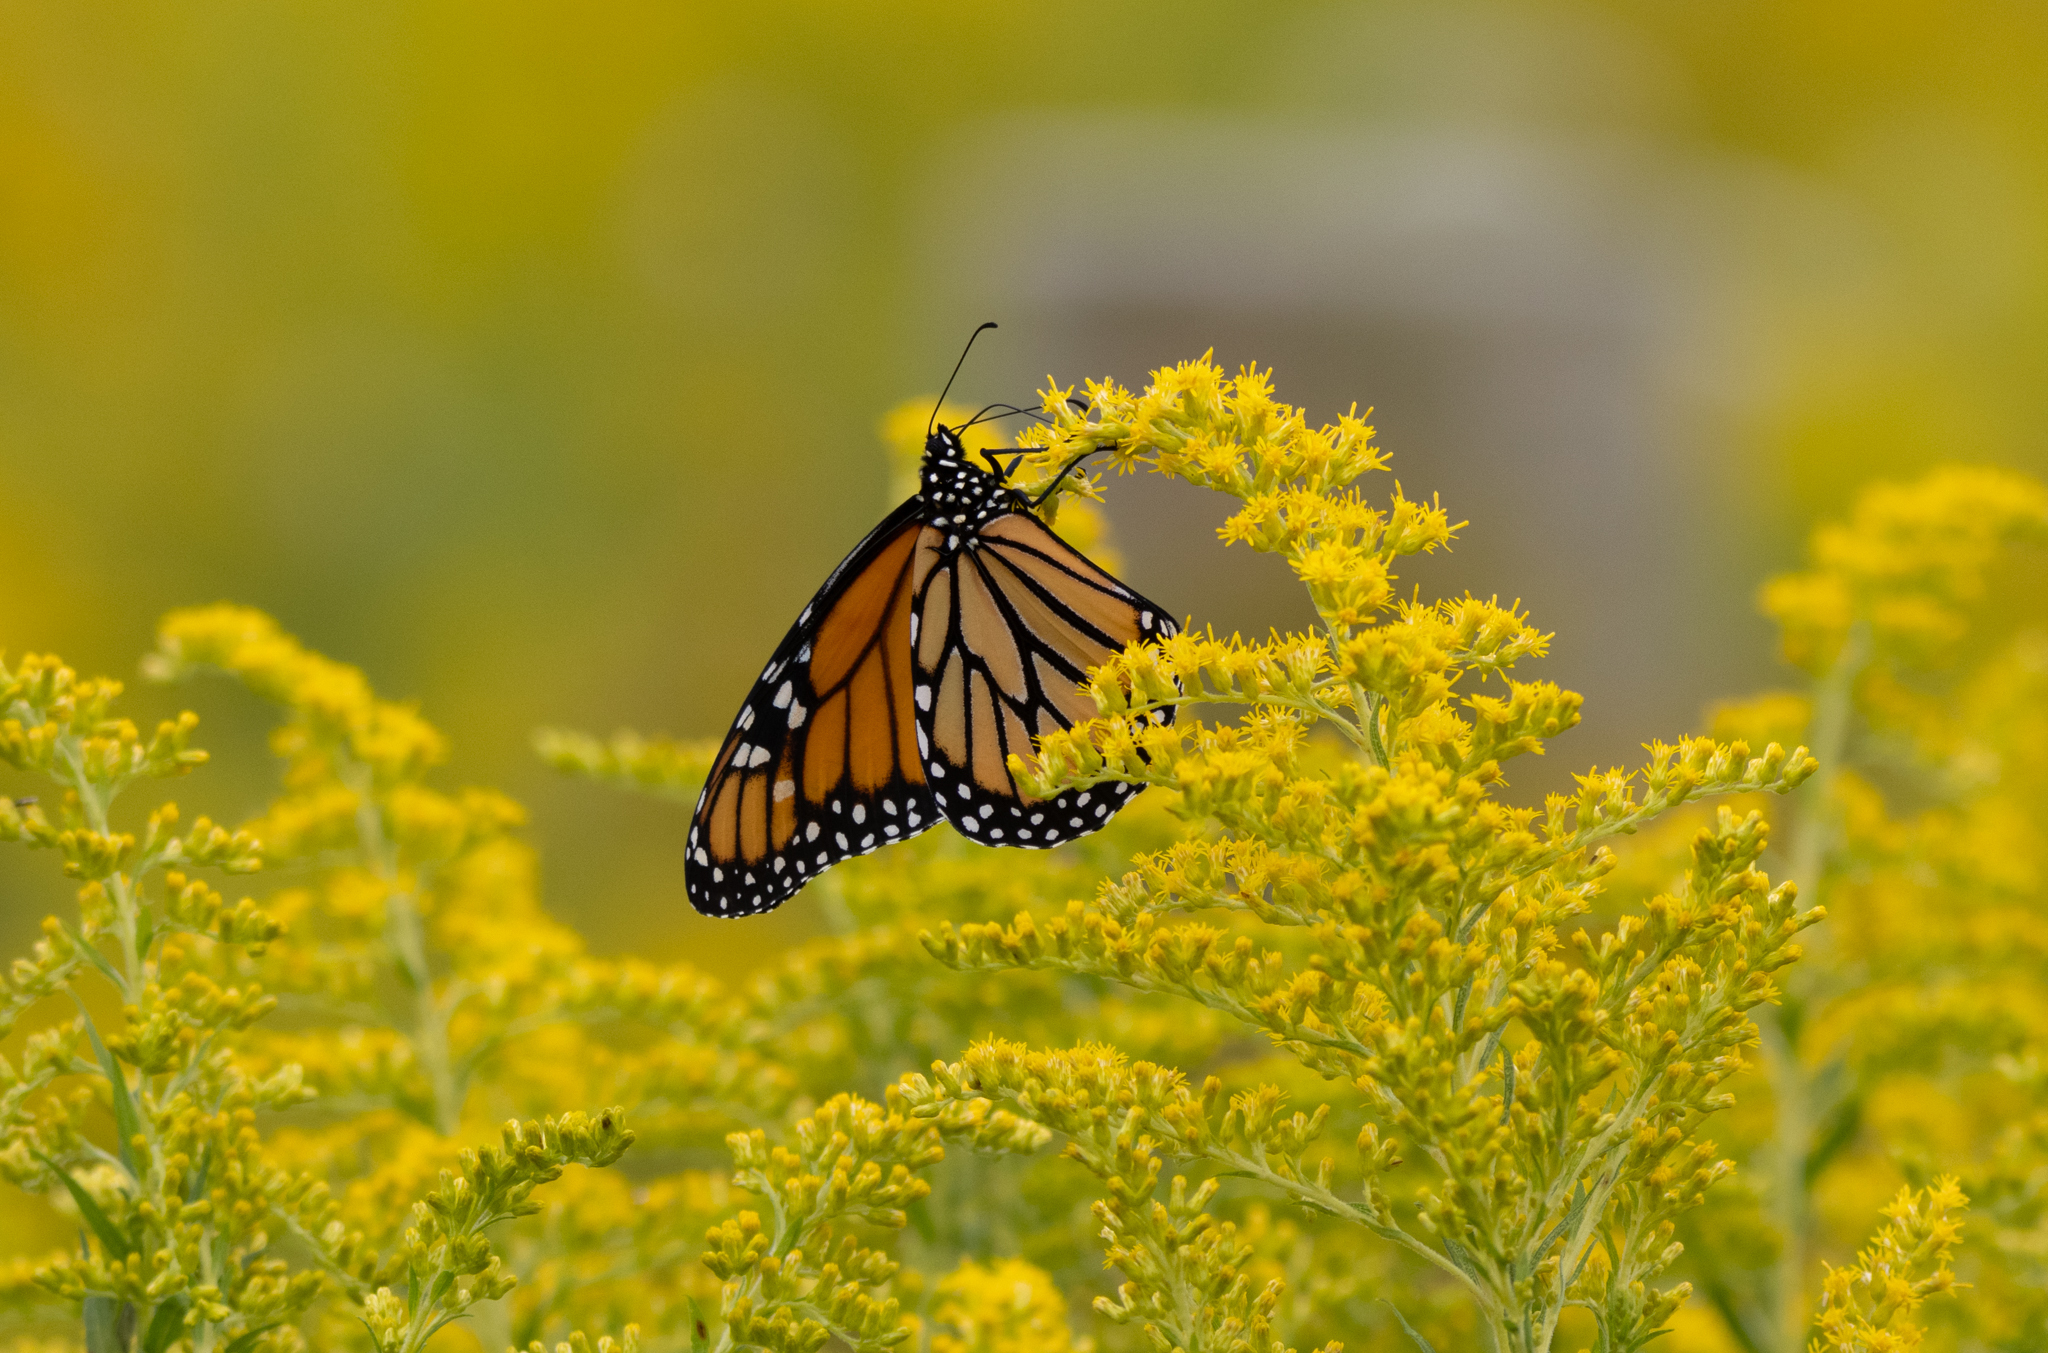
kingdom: Animalia
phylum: Arthropoda
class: Insecta
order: Lepidoptera
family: Nymphalidae
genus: Danaus
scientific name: Danaus plexippus
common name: Monarch
